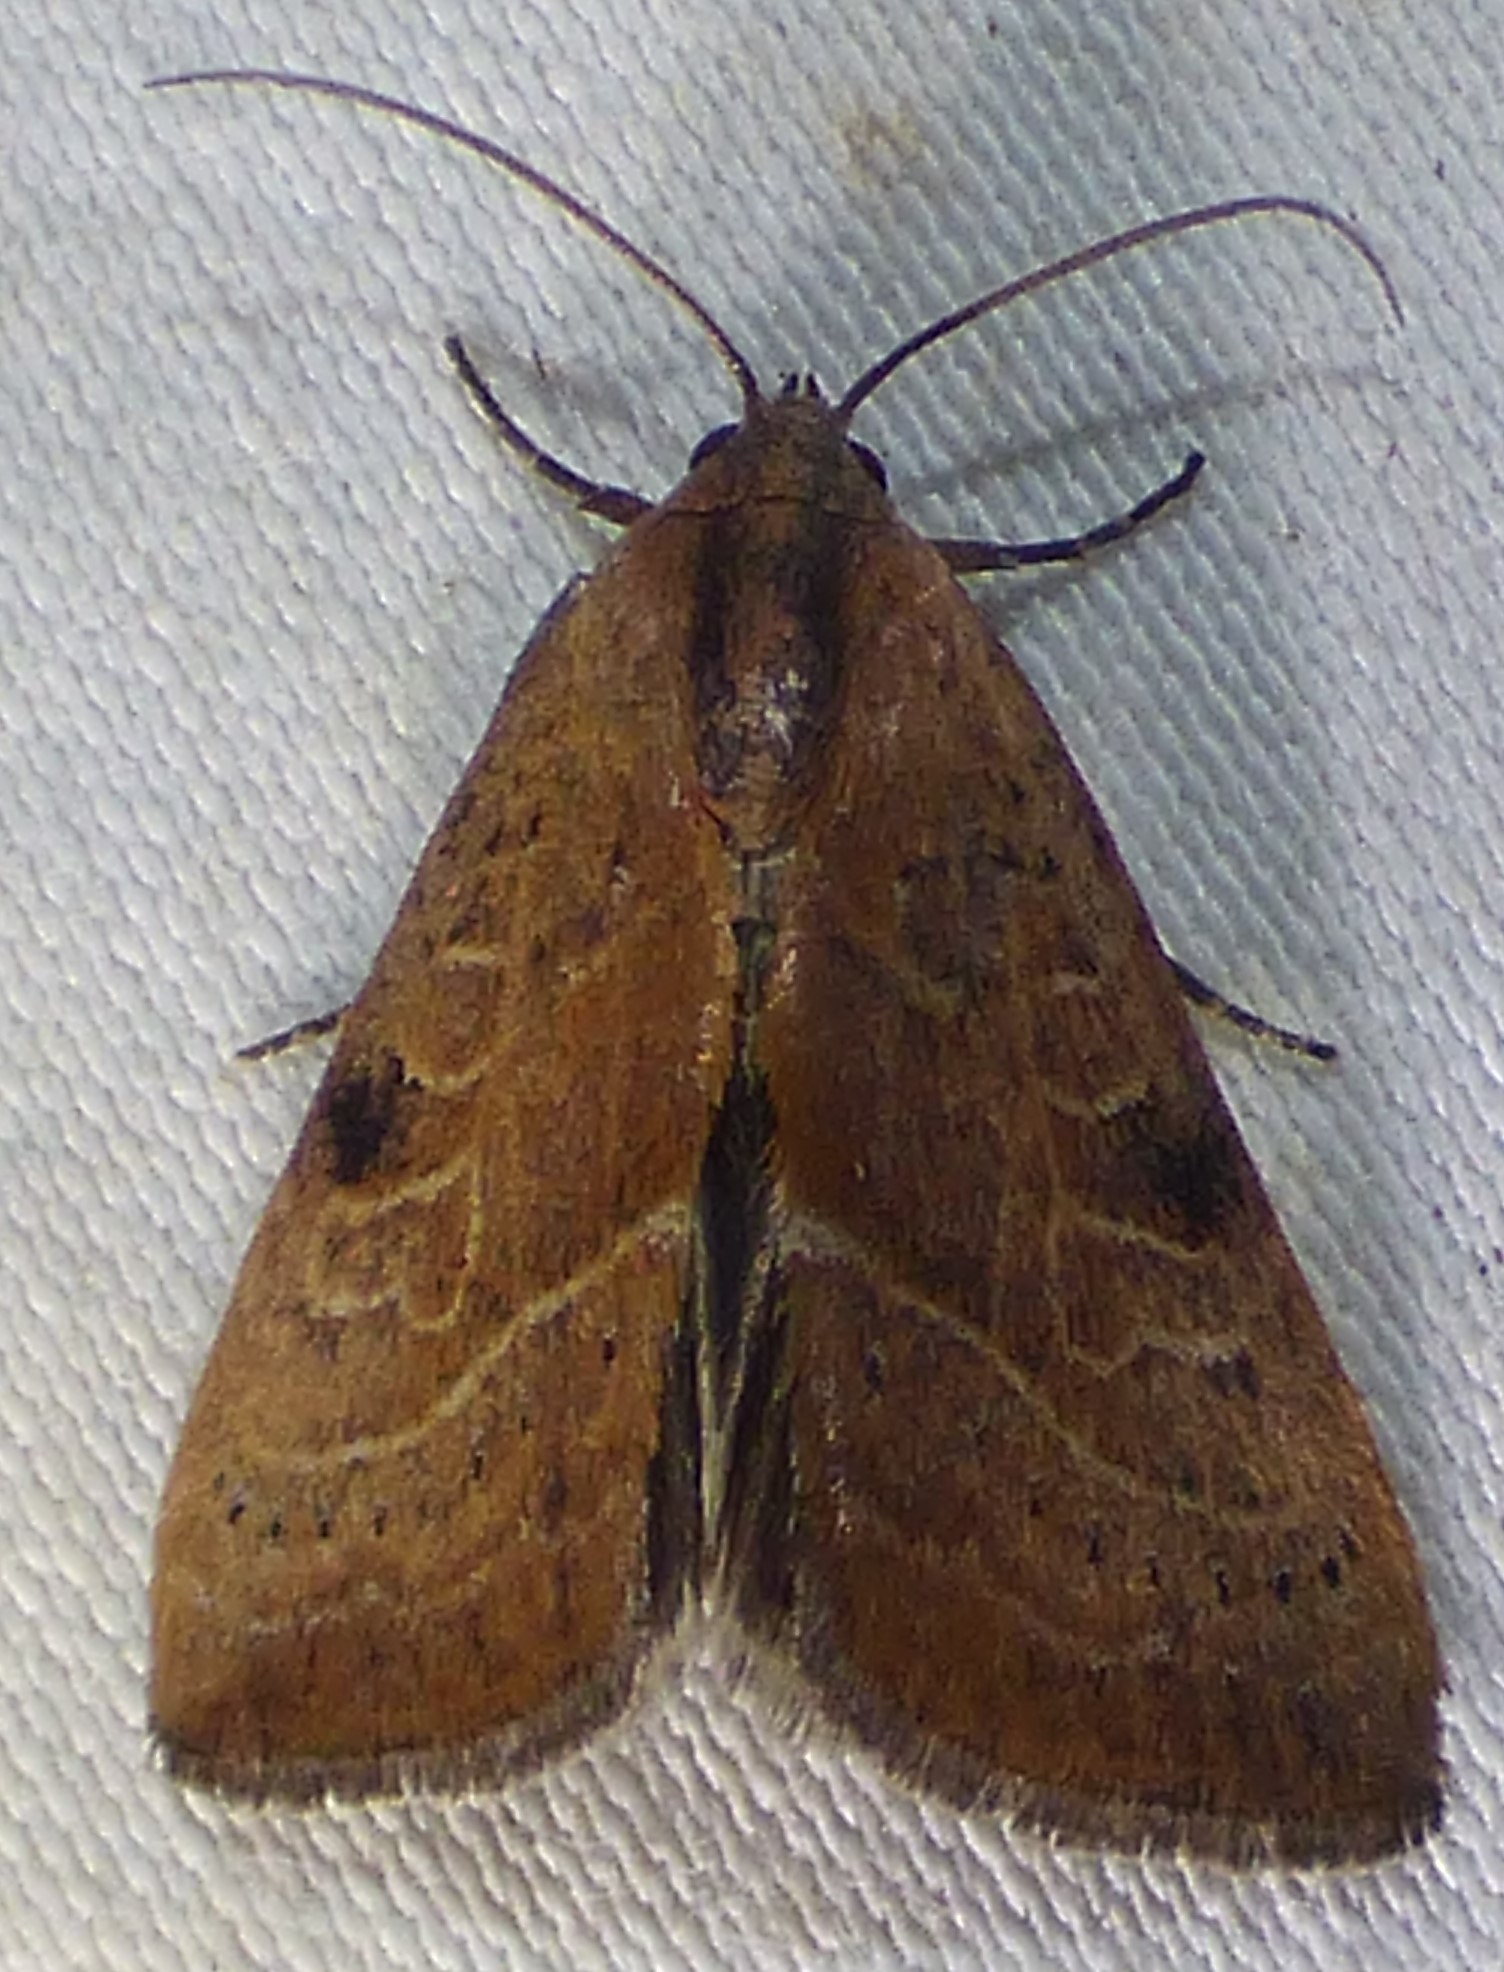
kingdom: Animalia
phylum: Arthropoda
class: Insecta
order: Lepidoptera
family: Noctuidae
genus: Galgula
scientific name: Galgula partita
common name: Wedgeling
